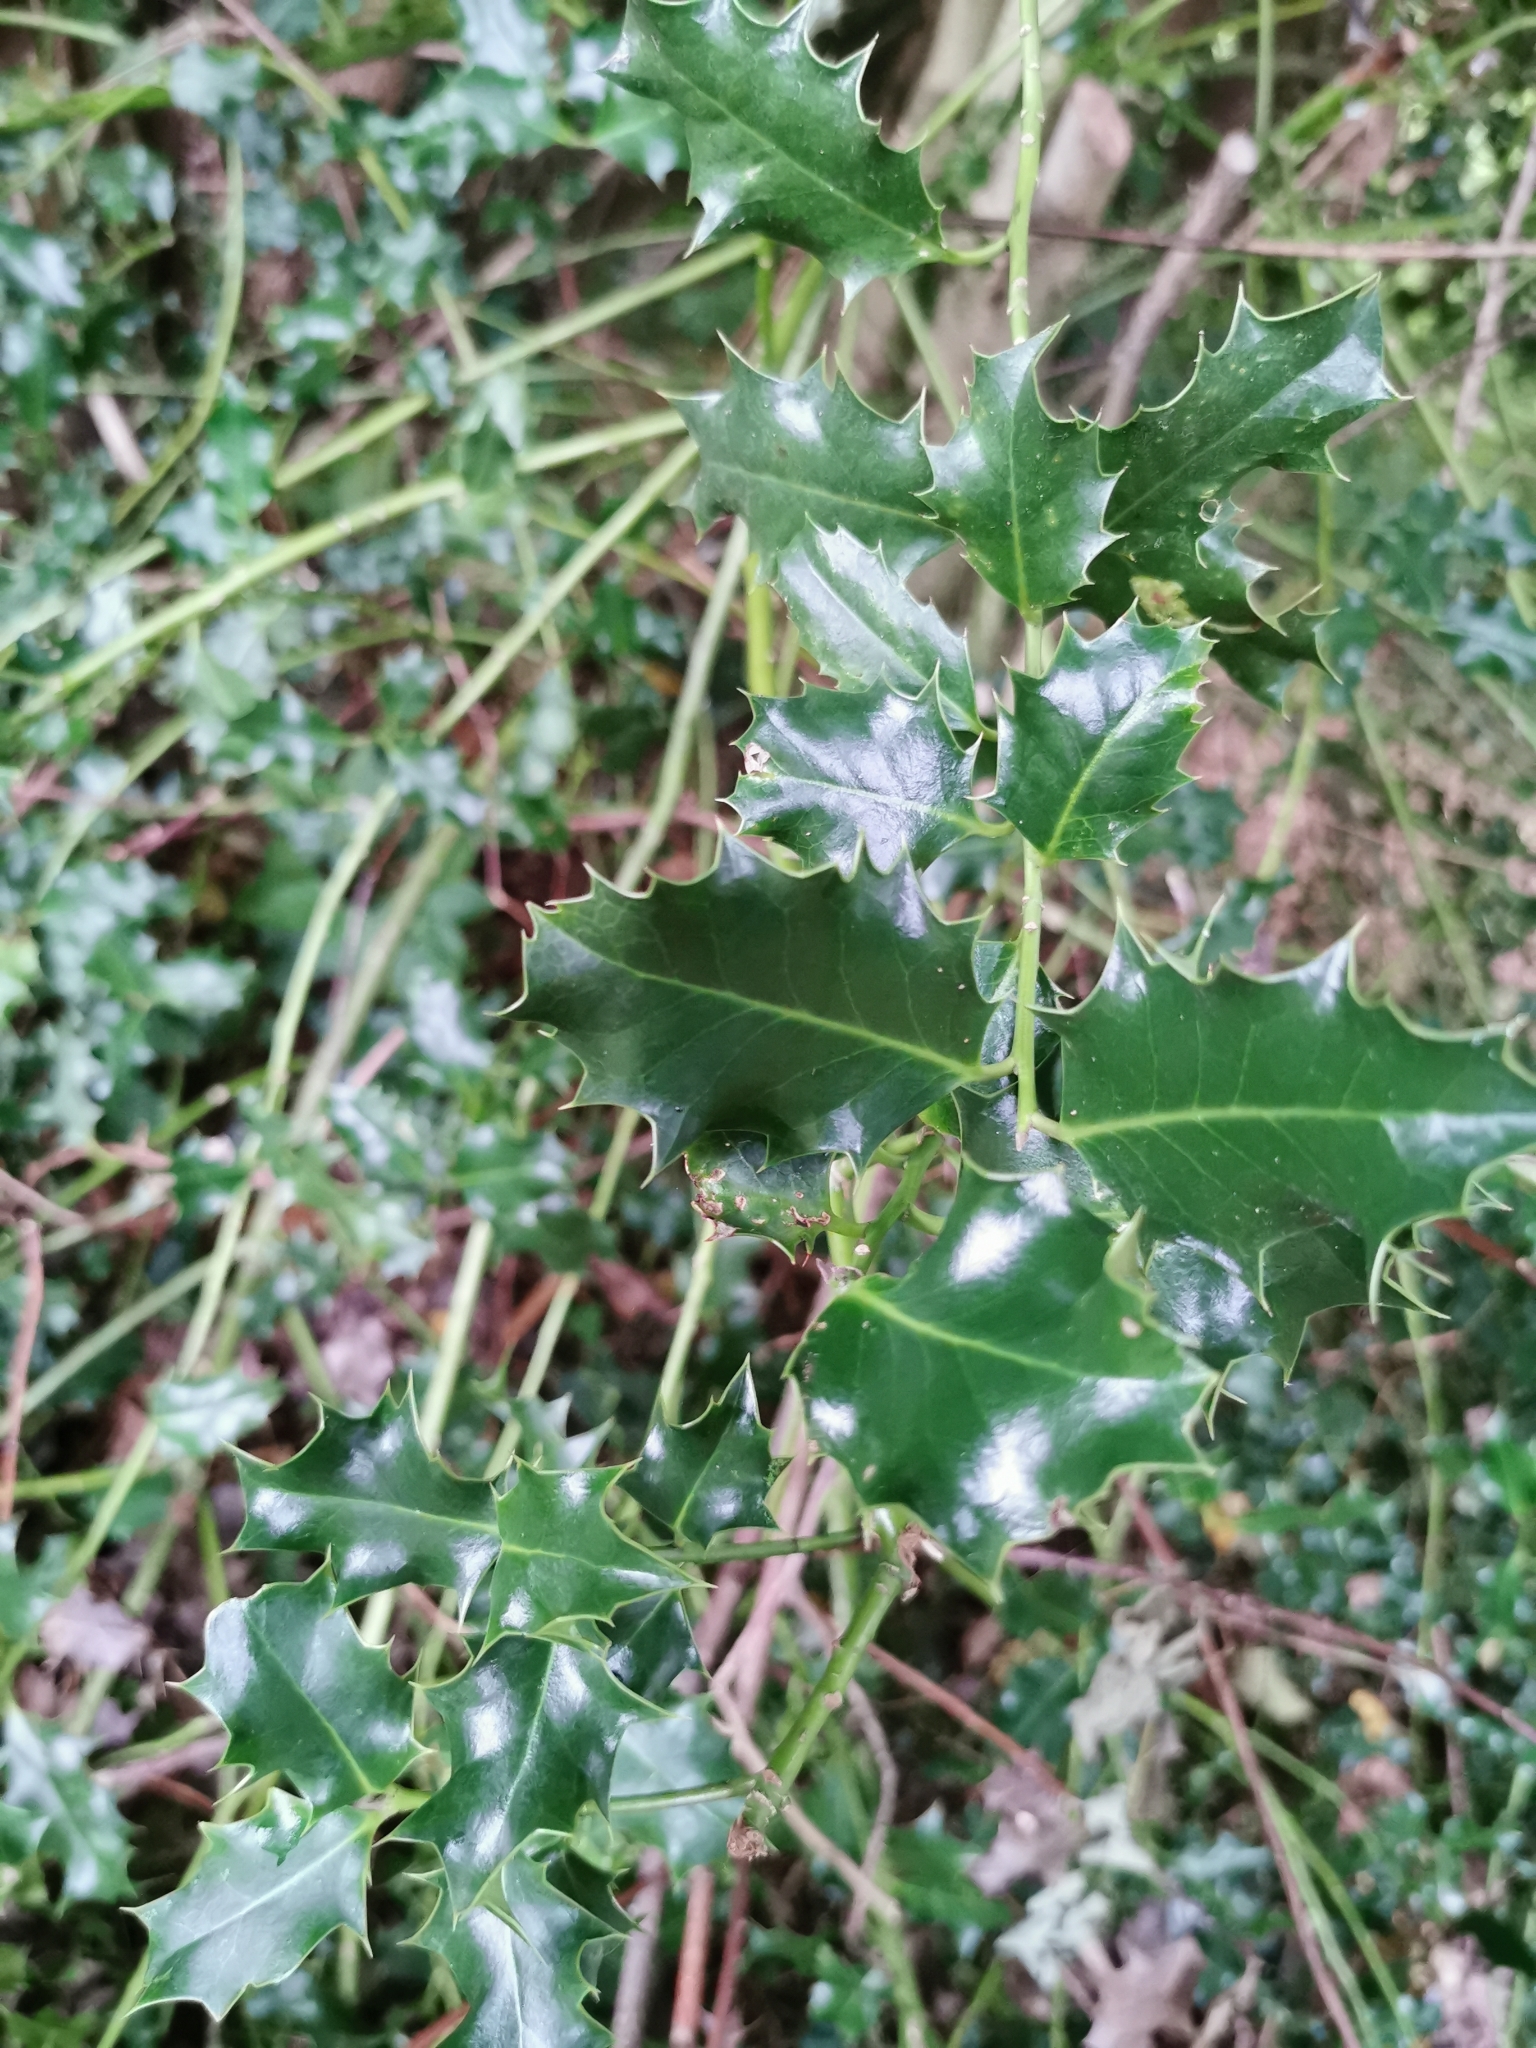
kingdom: Plantae
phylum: Tracheophyta
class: Magnoliopsida
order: Aquifoliales
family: Aquifoliaceae
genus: Ilex
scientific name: Ilex aquifolium
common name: English holly
